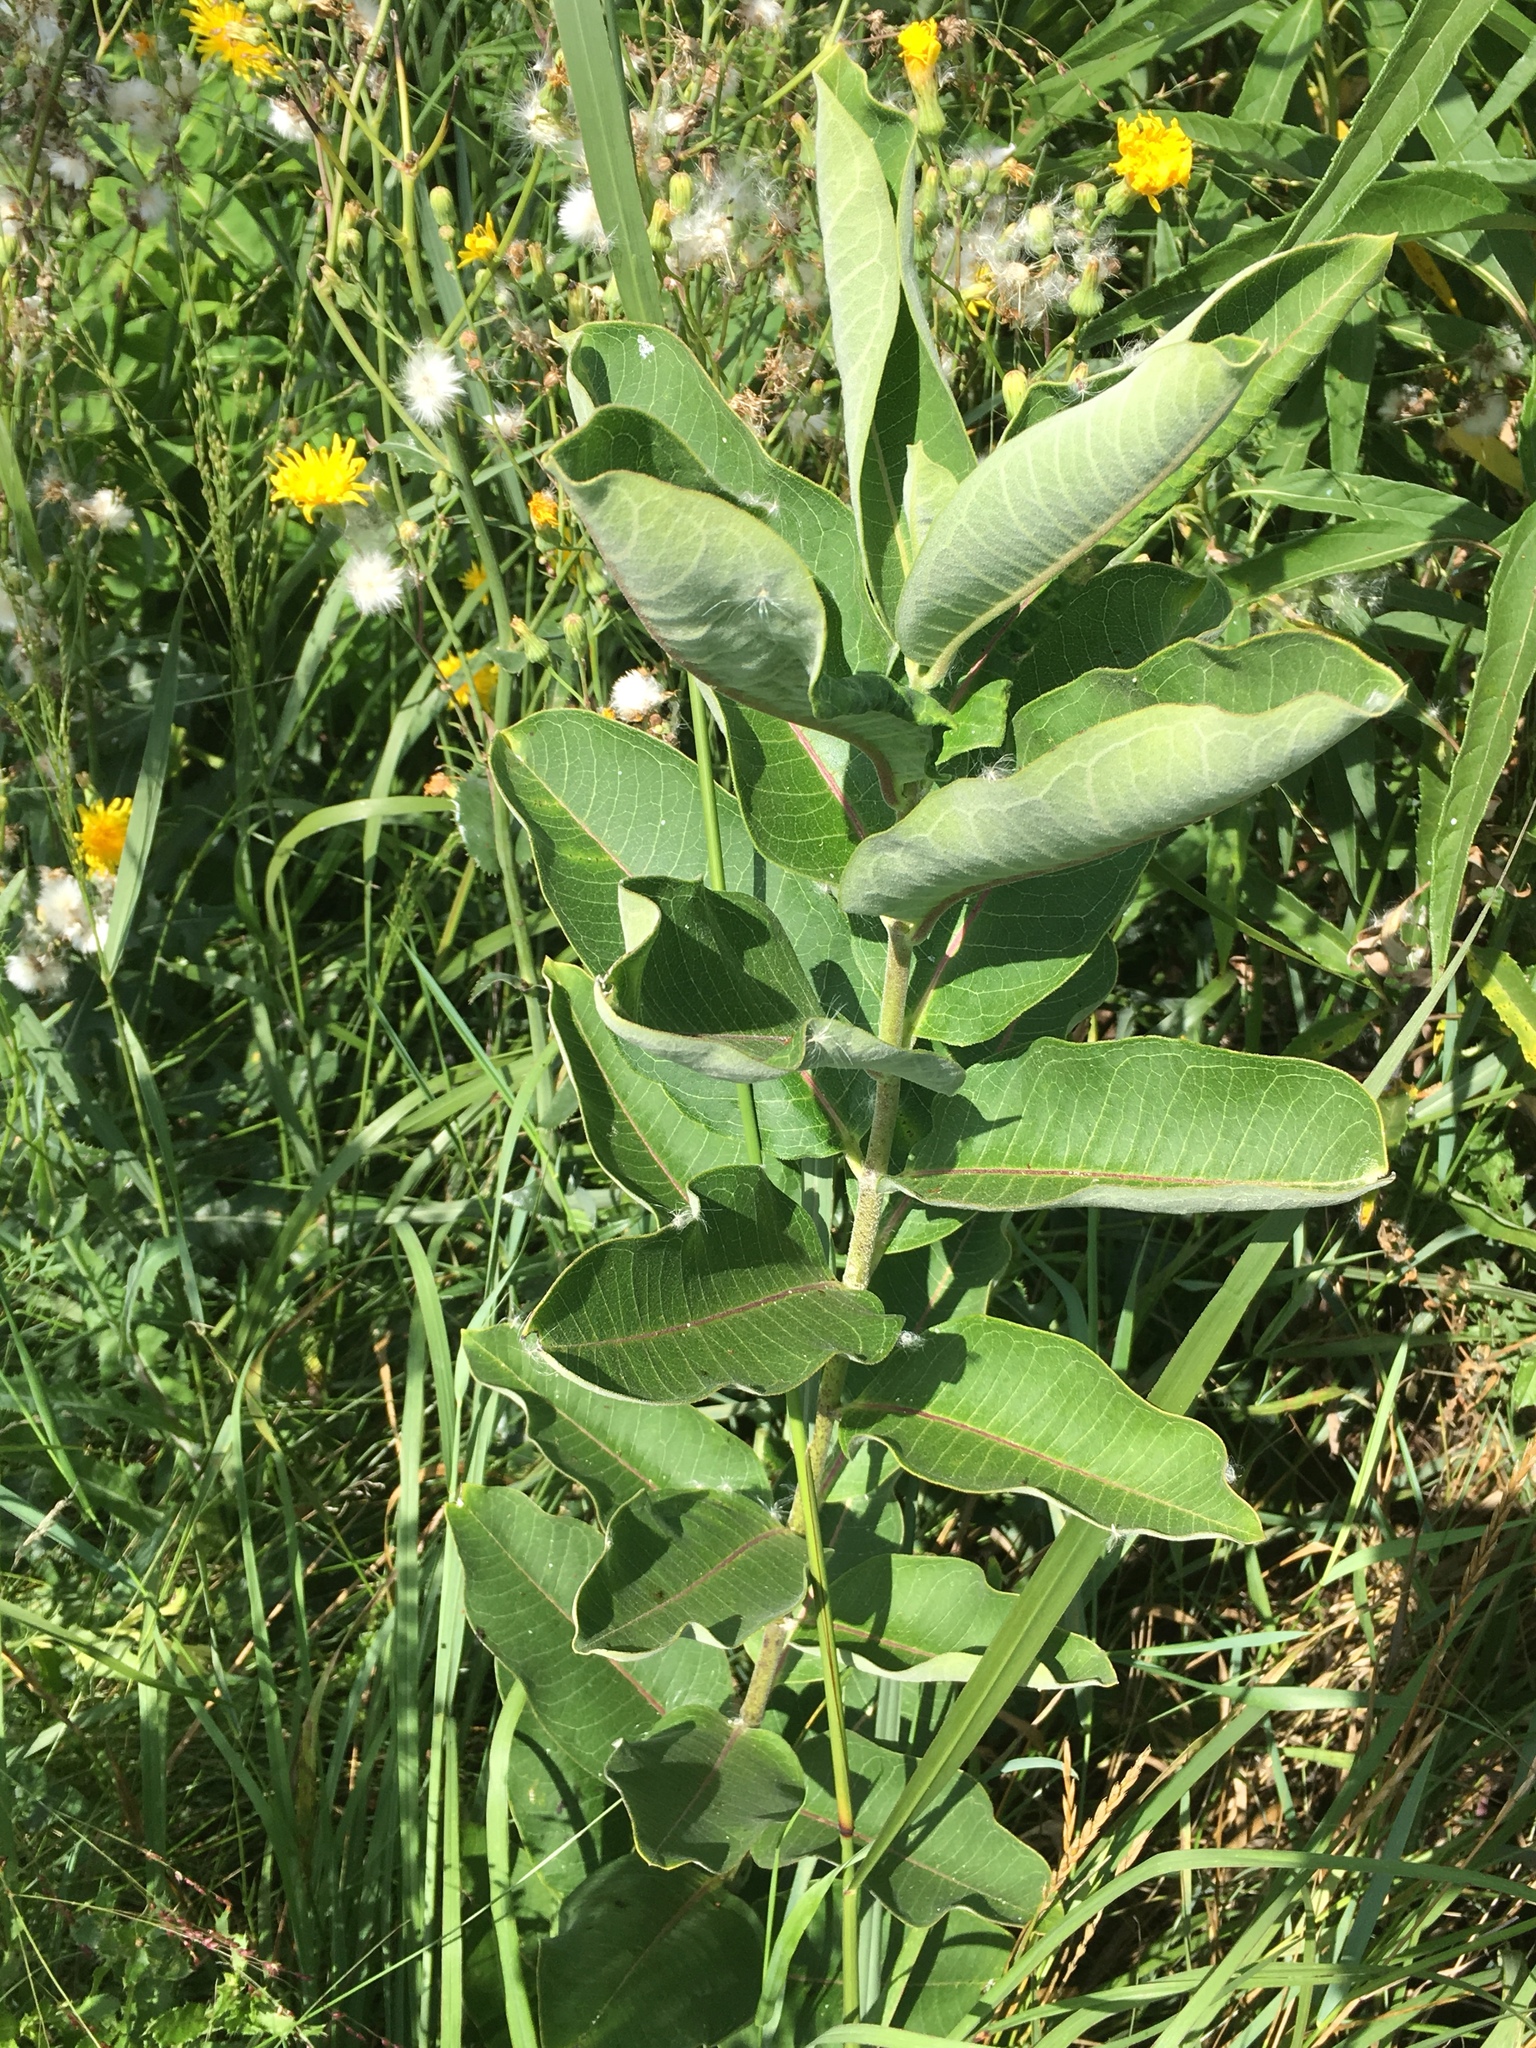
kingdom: Plantae
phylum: Tracheophyta
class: Magnoliopsida
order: Gentianales
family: Apocynaceae
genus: Asclepias
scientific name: Asclepias syriaca
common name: Common milkweed
